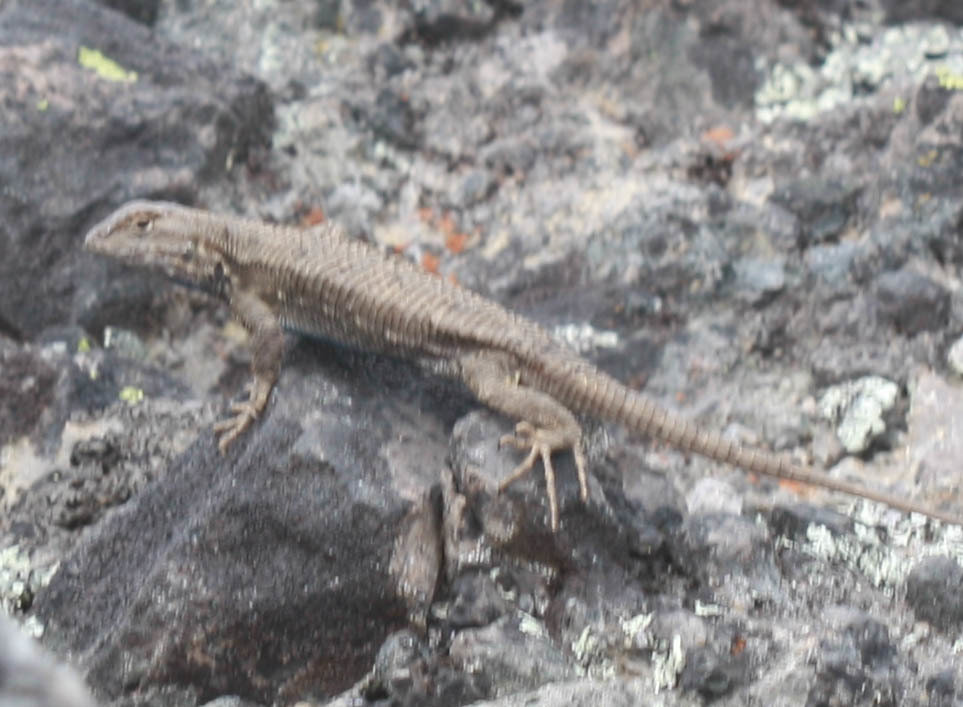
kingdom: Animalia
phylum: Chordata
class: Squamata
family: Phrynosomatidae
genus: Sceloporus
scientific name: Sceloporus occidentalis
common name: Western fence lizard
